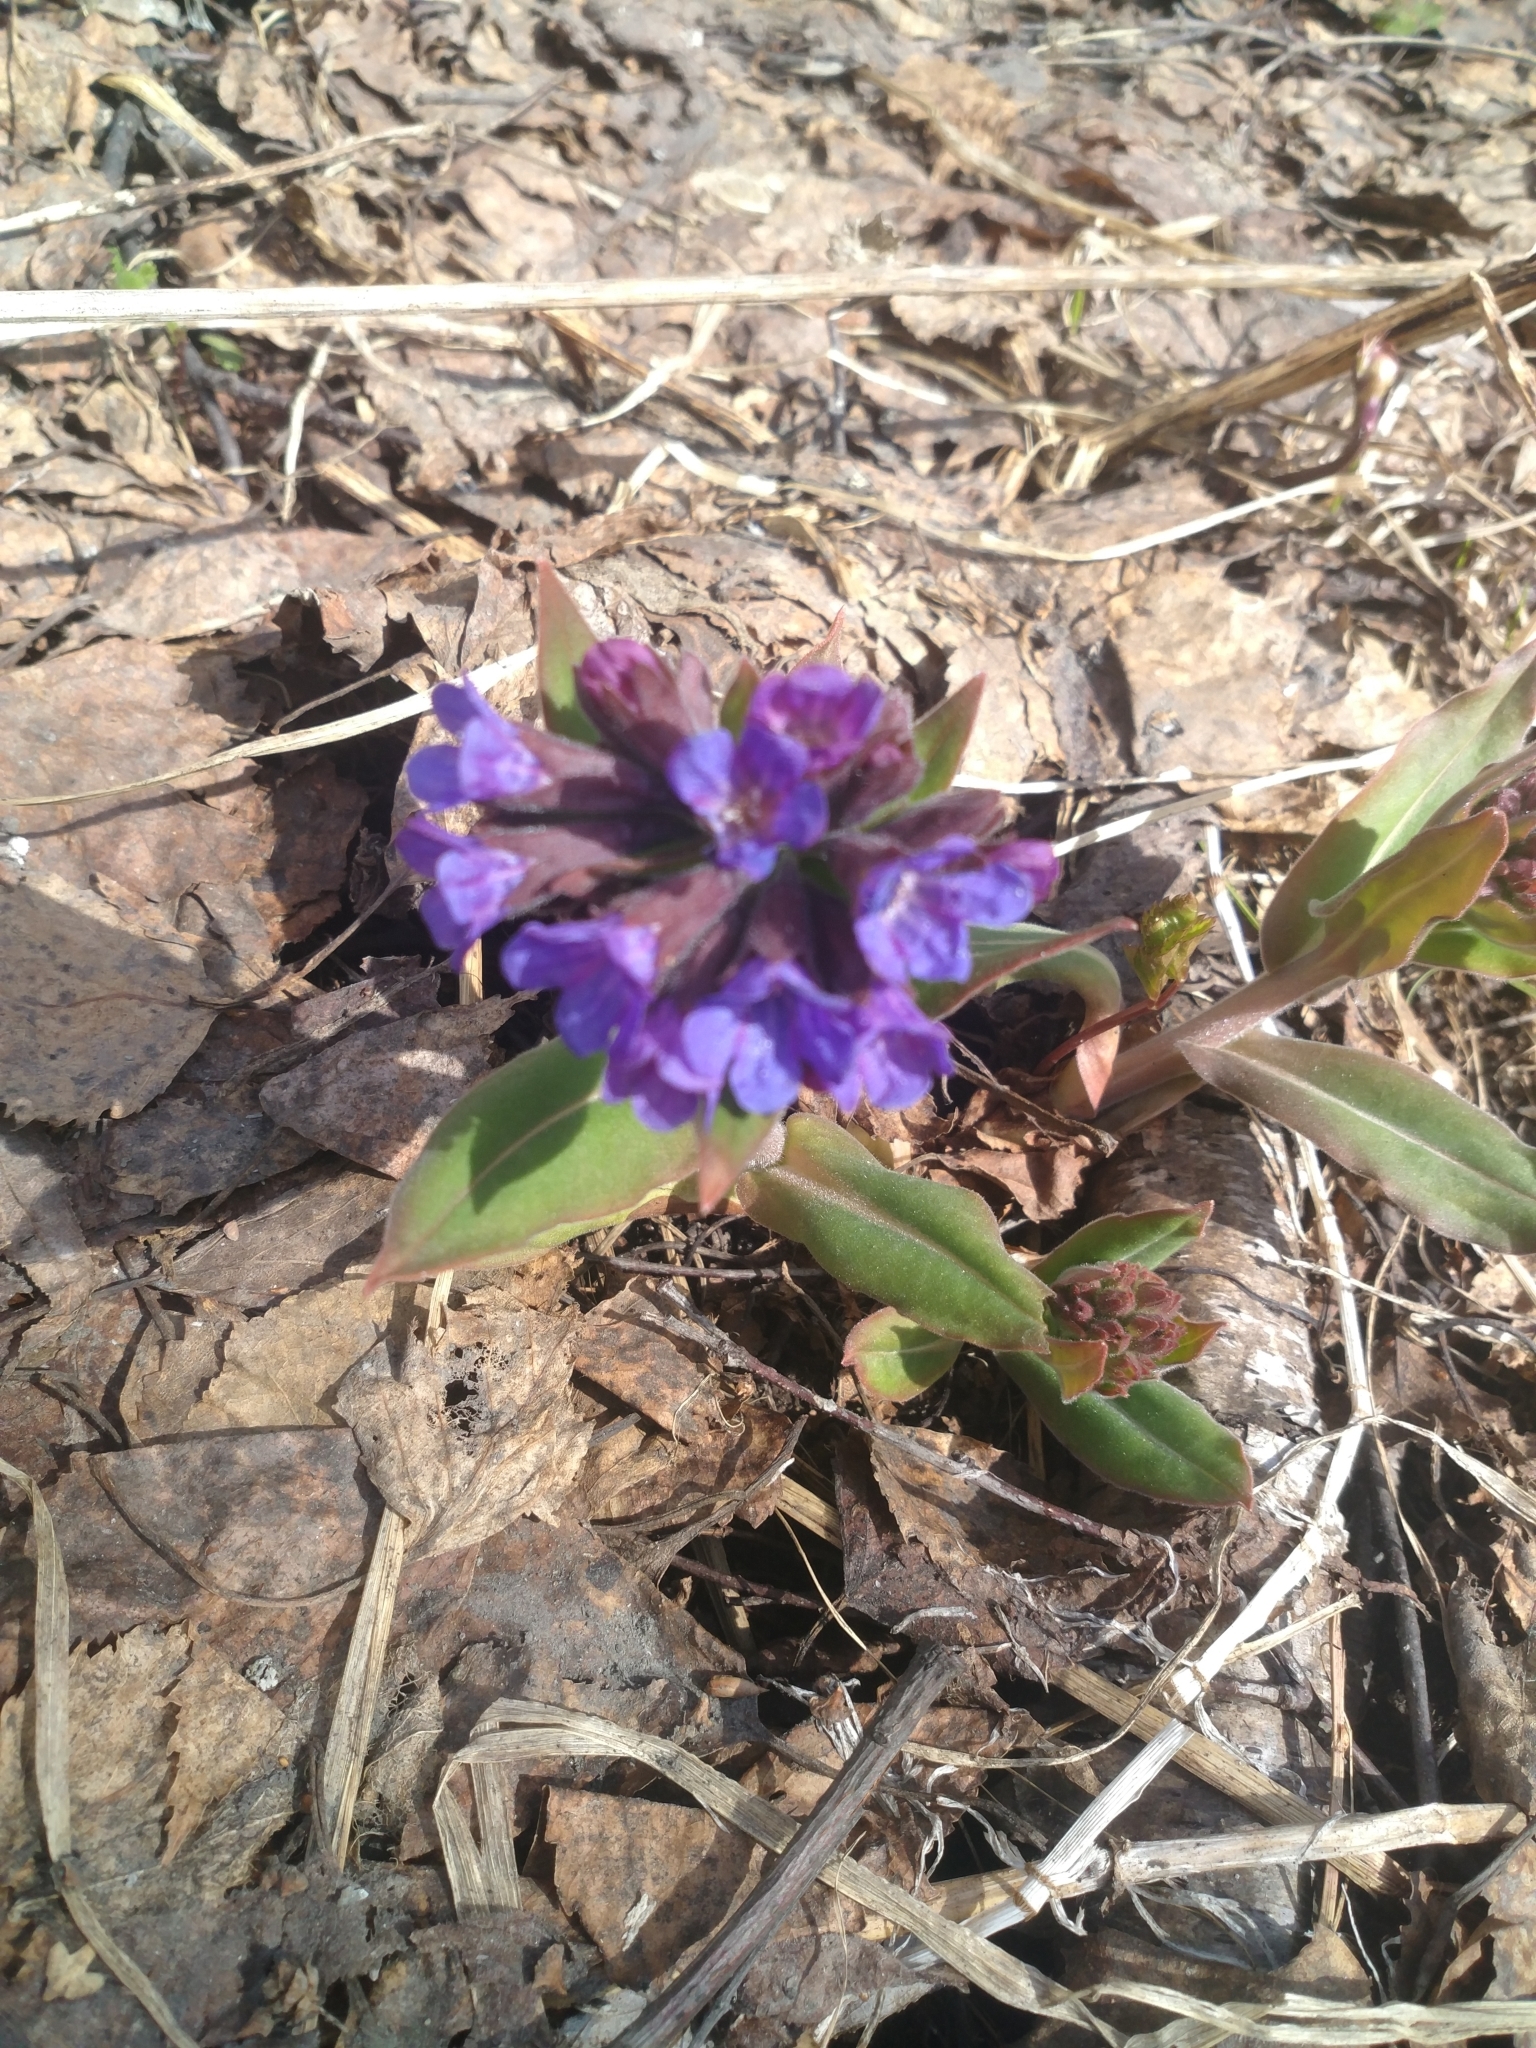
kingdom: Plantae
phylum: Tracheophyta
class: Magnoliopsida
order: Boraginales
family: Boraginaceae
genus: Pulmonaria
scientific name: Pulmonaria mollis
